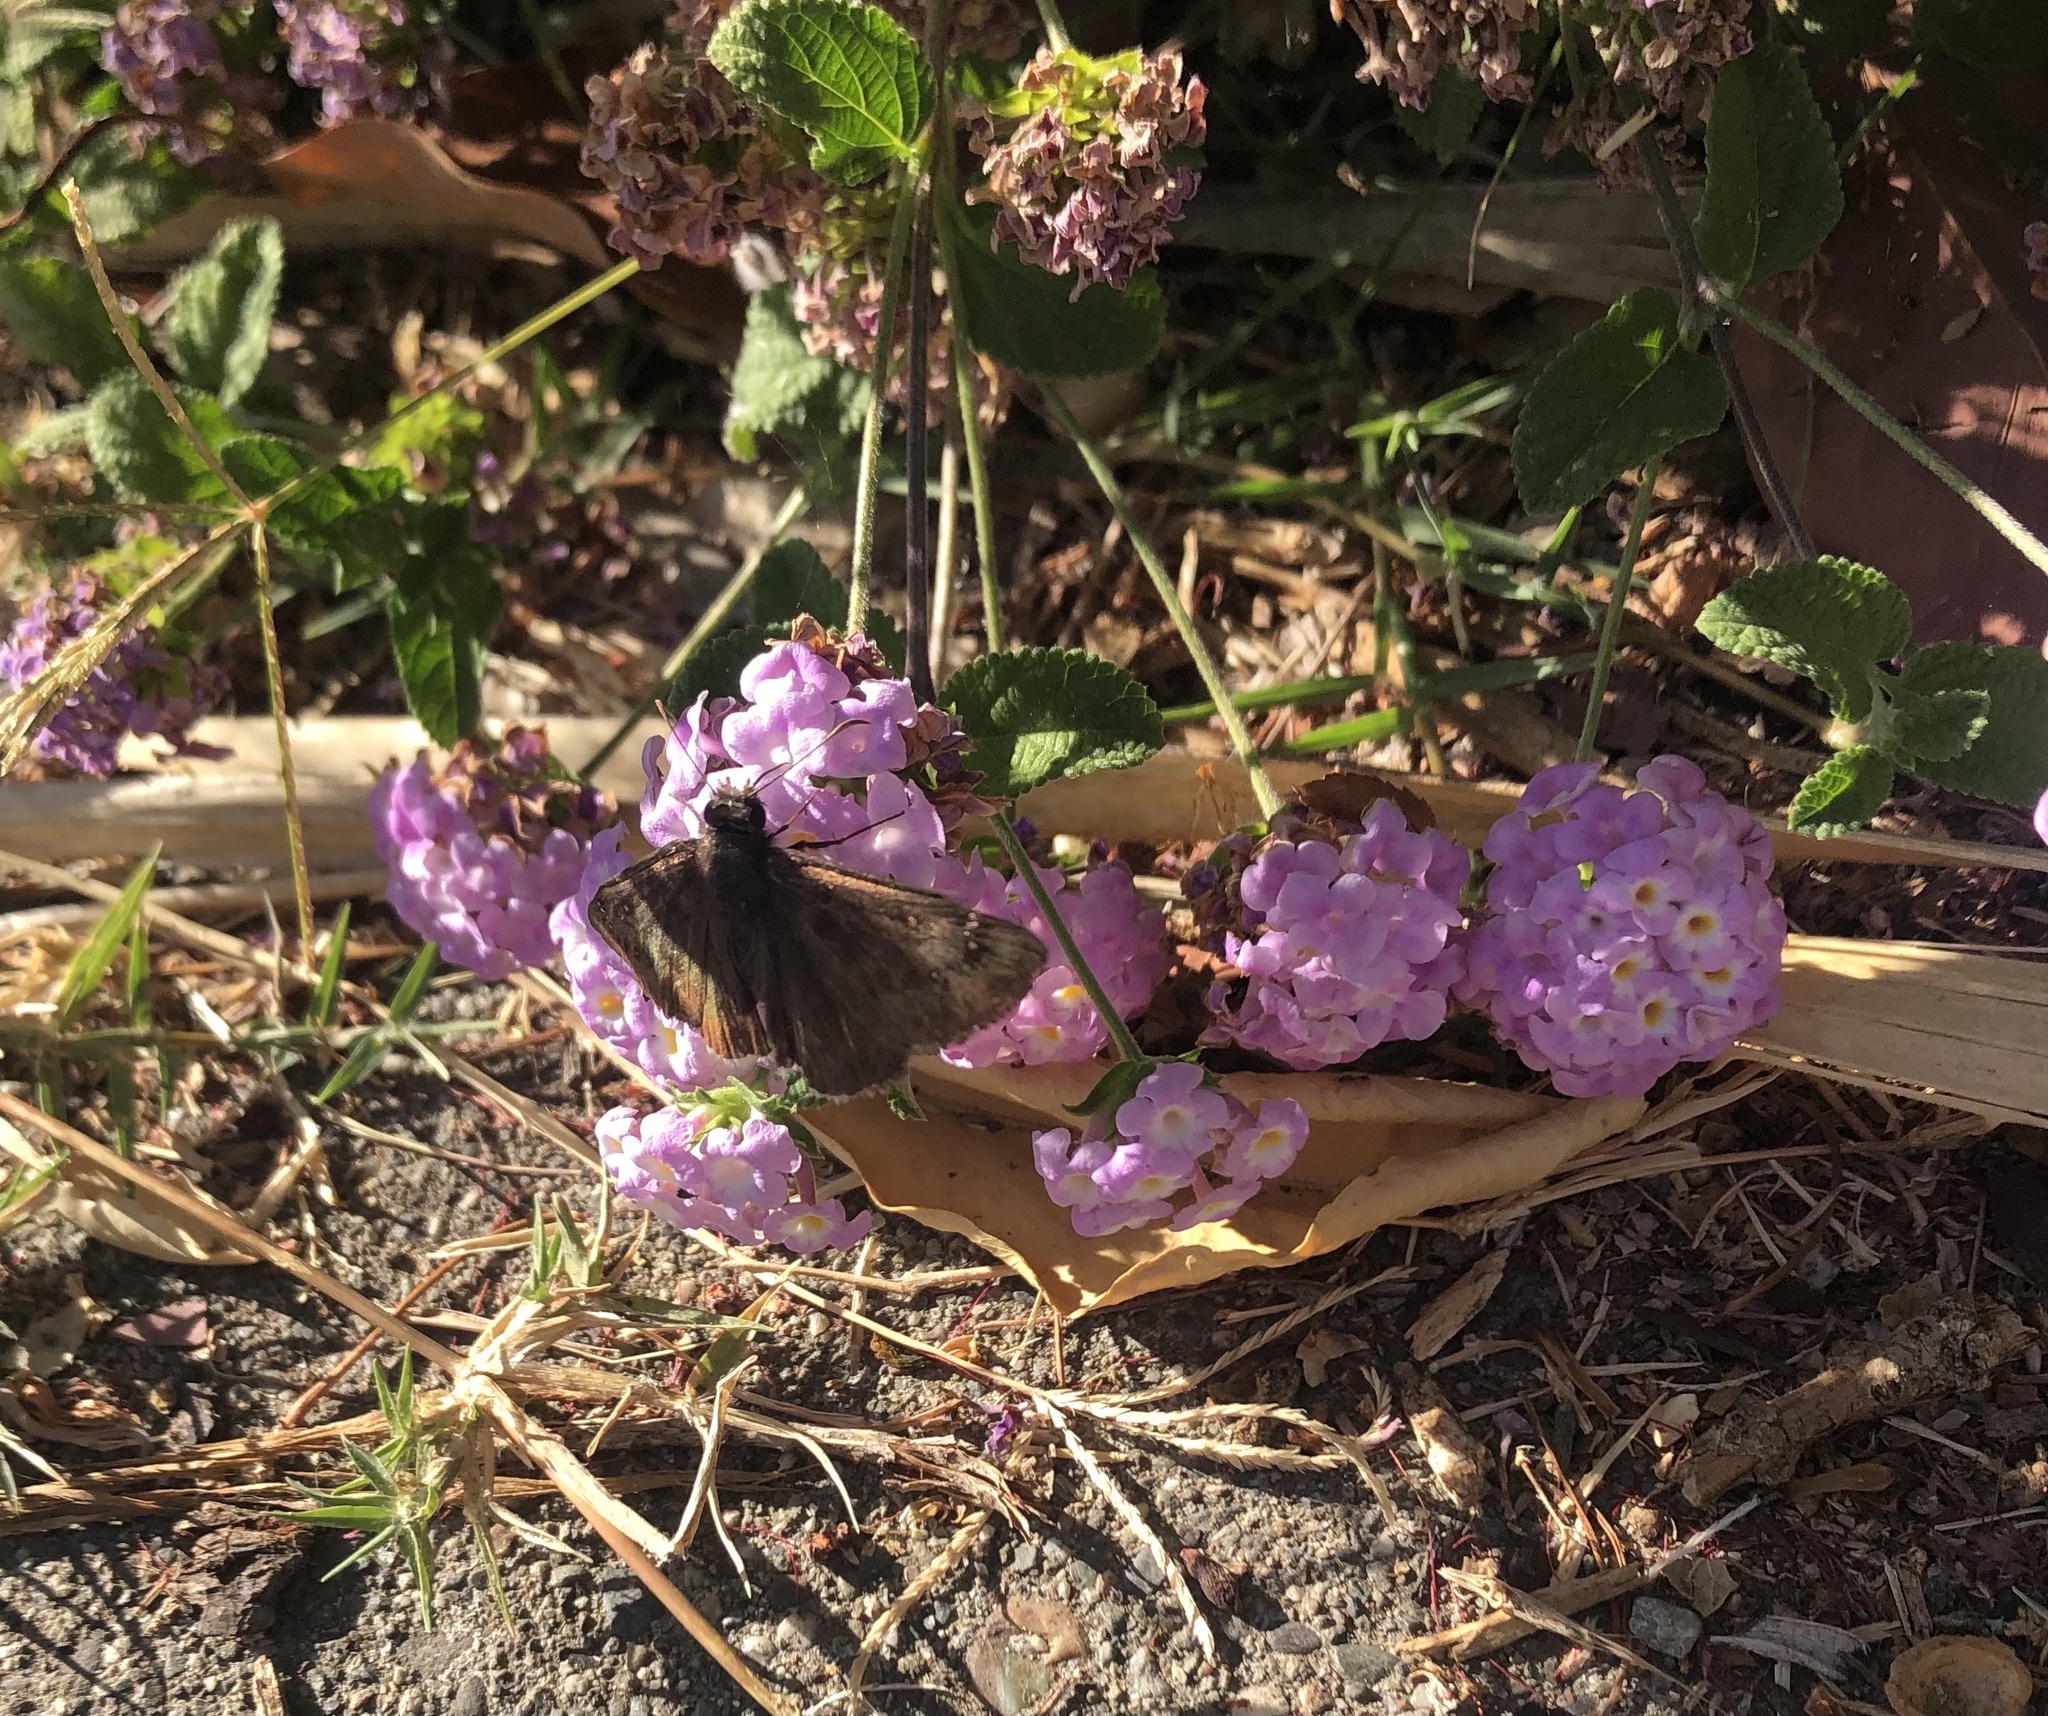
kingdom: Animalia
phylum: Arthropoda
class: Insecta
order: Lepidoptera
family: Hesperiidae
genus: Erynnis
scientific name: Erynnis tristis
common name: Mournful duskywing
